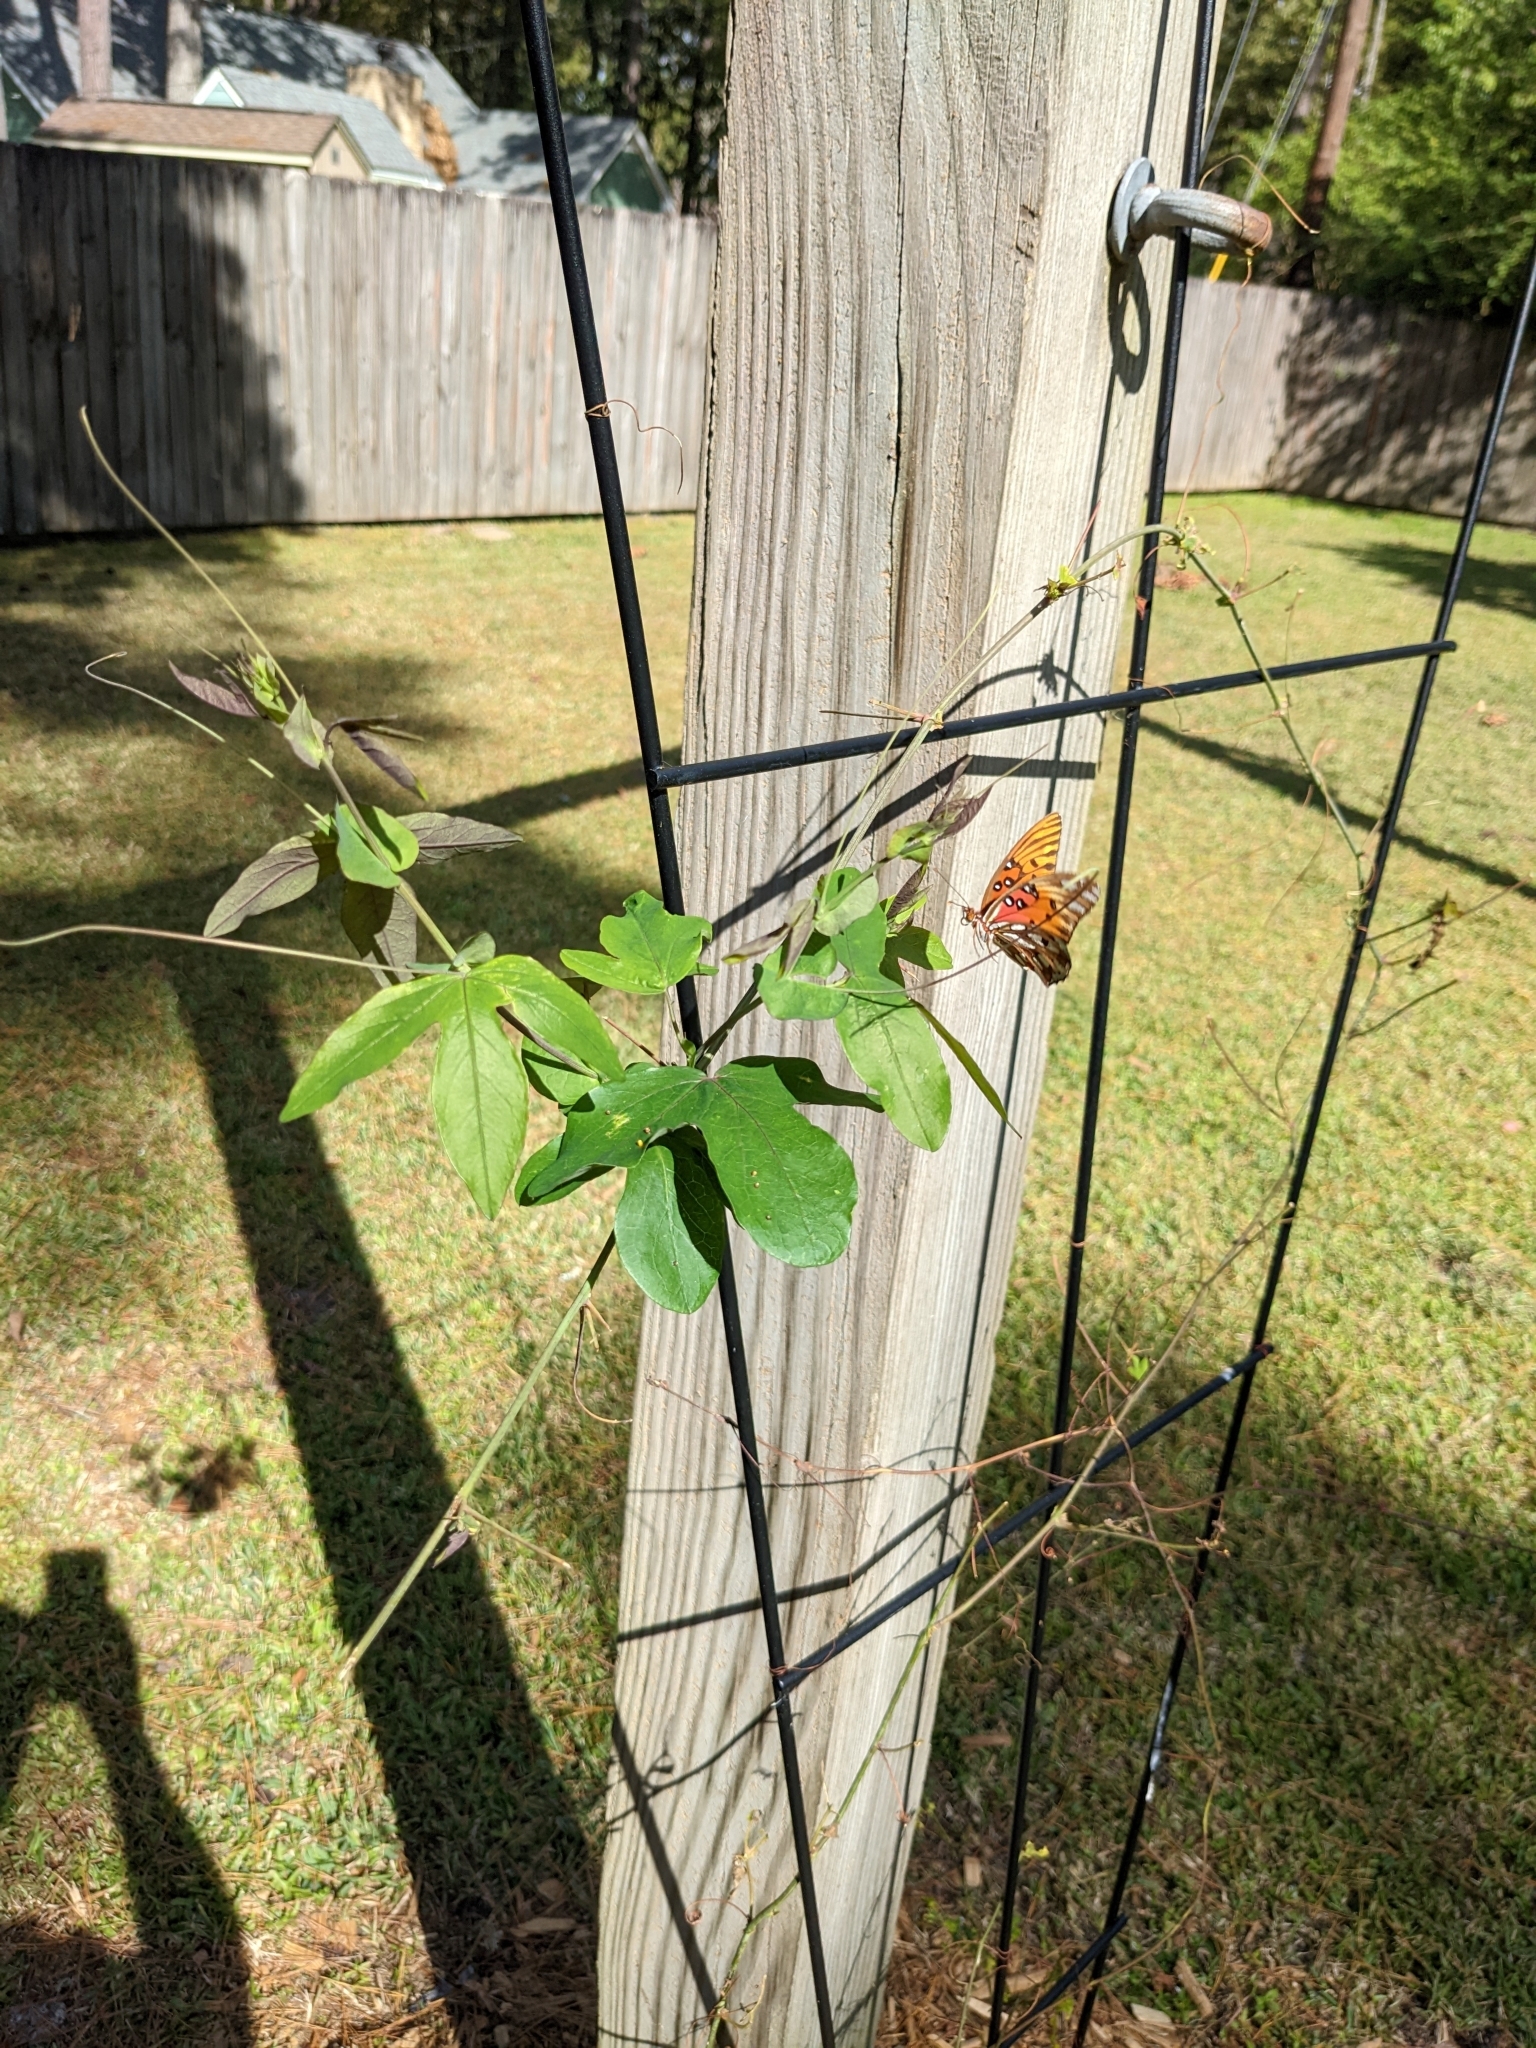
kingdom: Animalia
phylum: Arthropoda
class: Insecta
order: Lepidoptera
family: Nymphalidae
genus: Dione
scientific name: Dione vanillae
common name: Gulf fritillary
